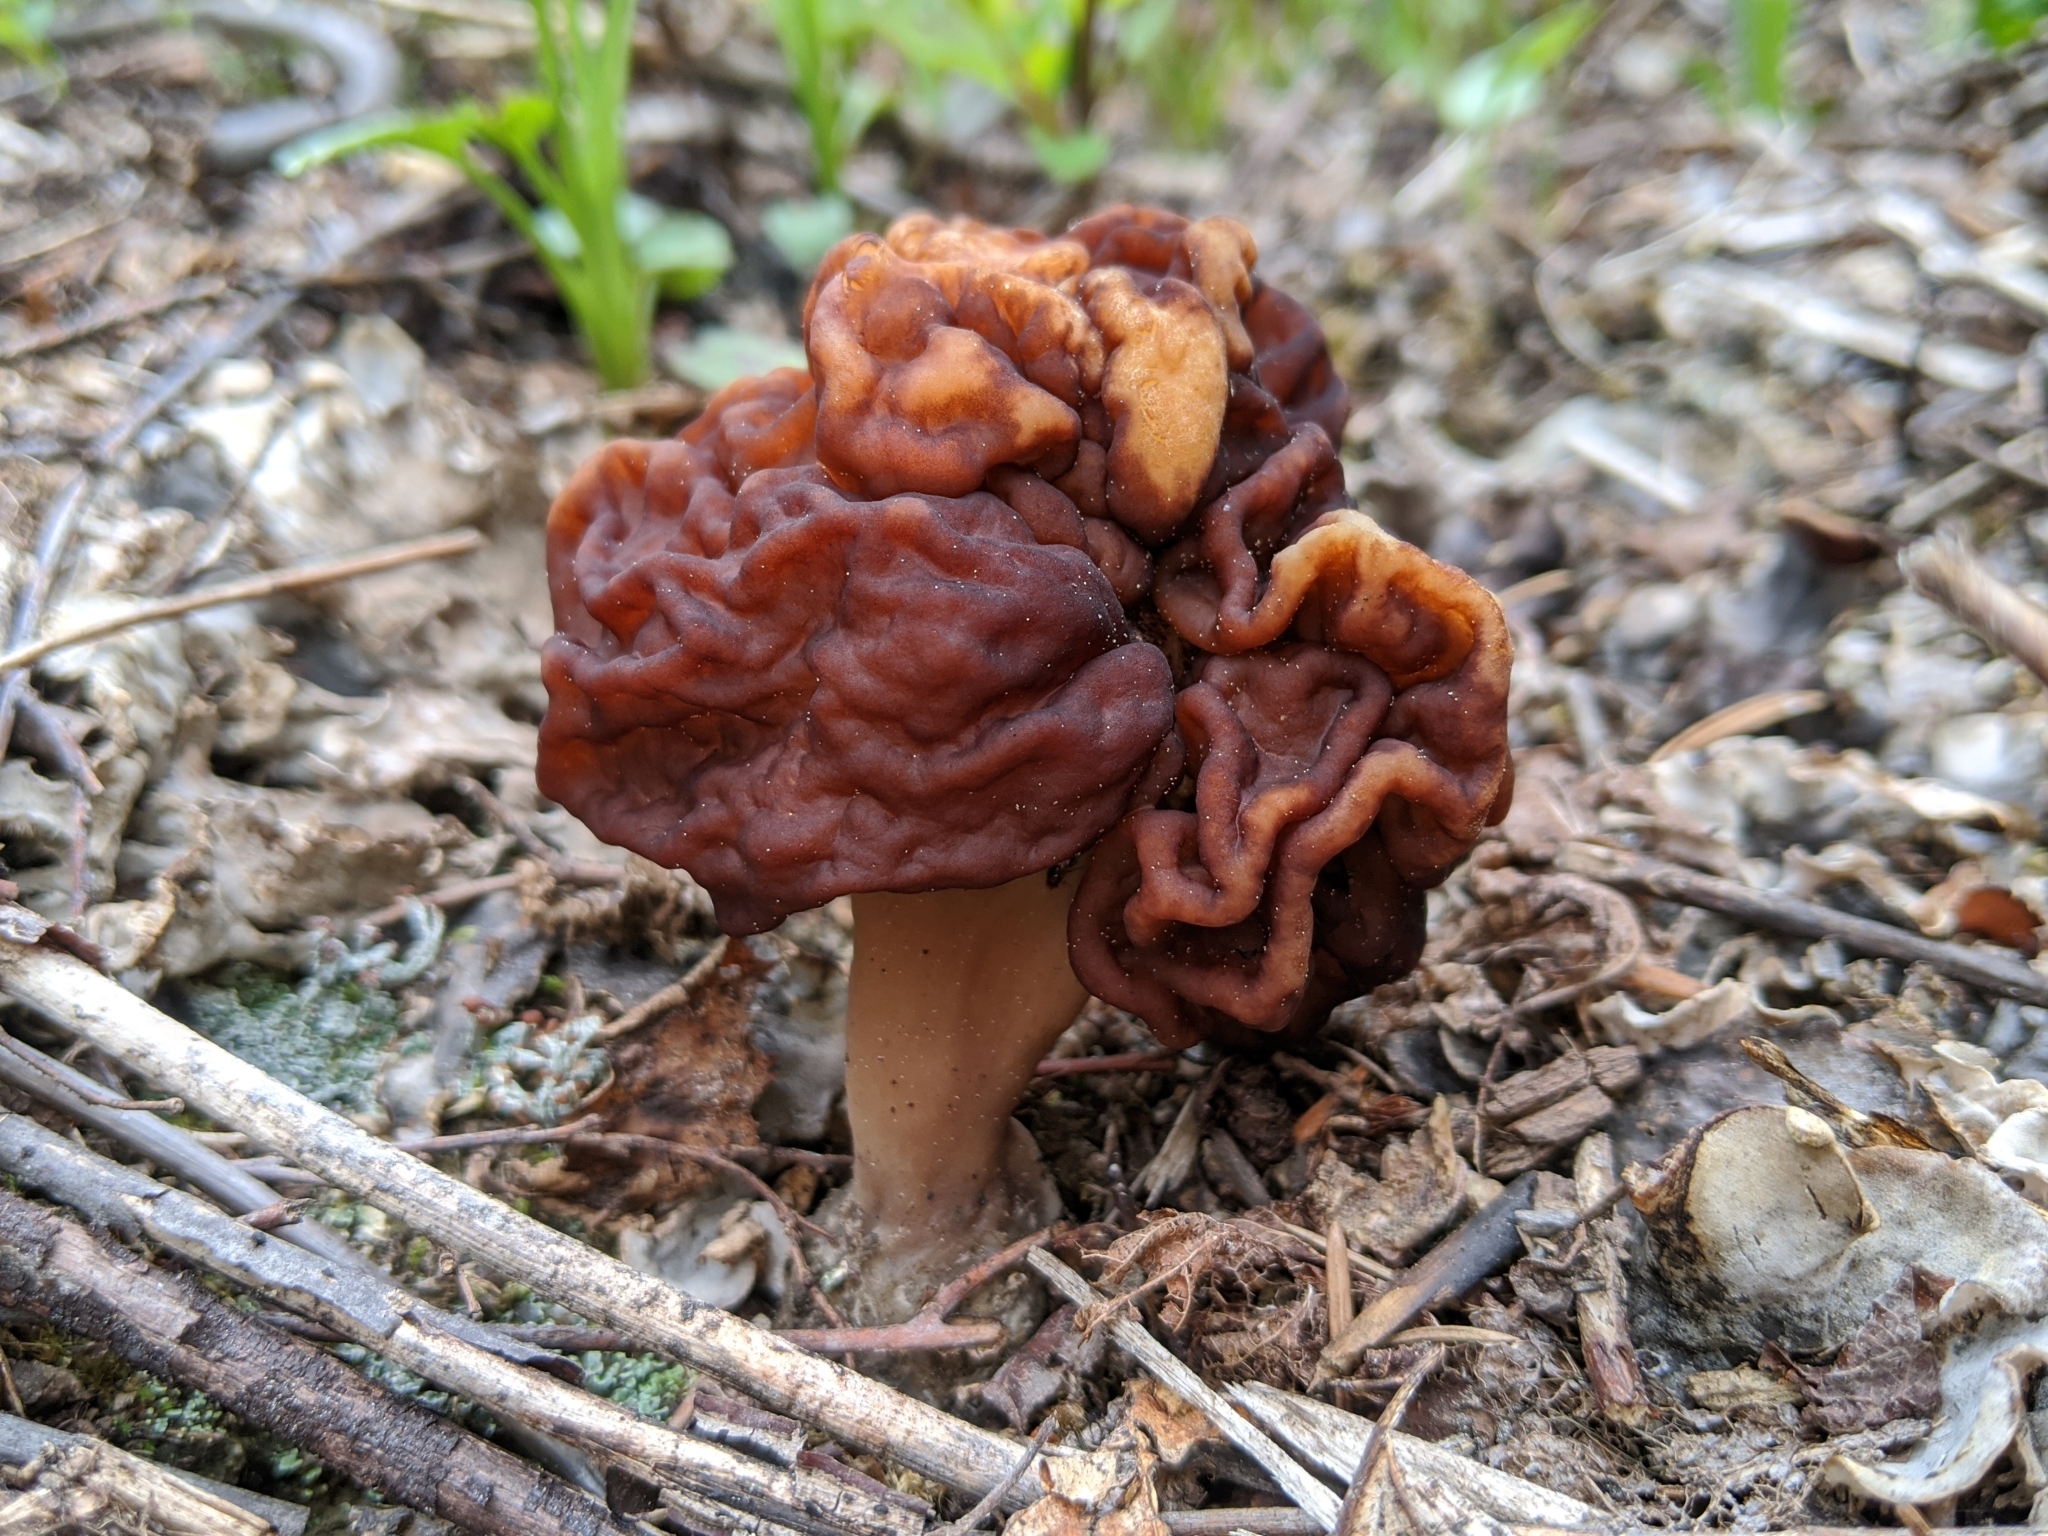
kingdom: Fungi
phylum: Ascomycota
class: Pezizomycetes
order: Pezizales
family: Discinaceae
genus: Gyromitra
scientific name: Gyromitra esculenta
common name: False morel
